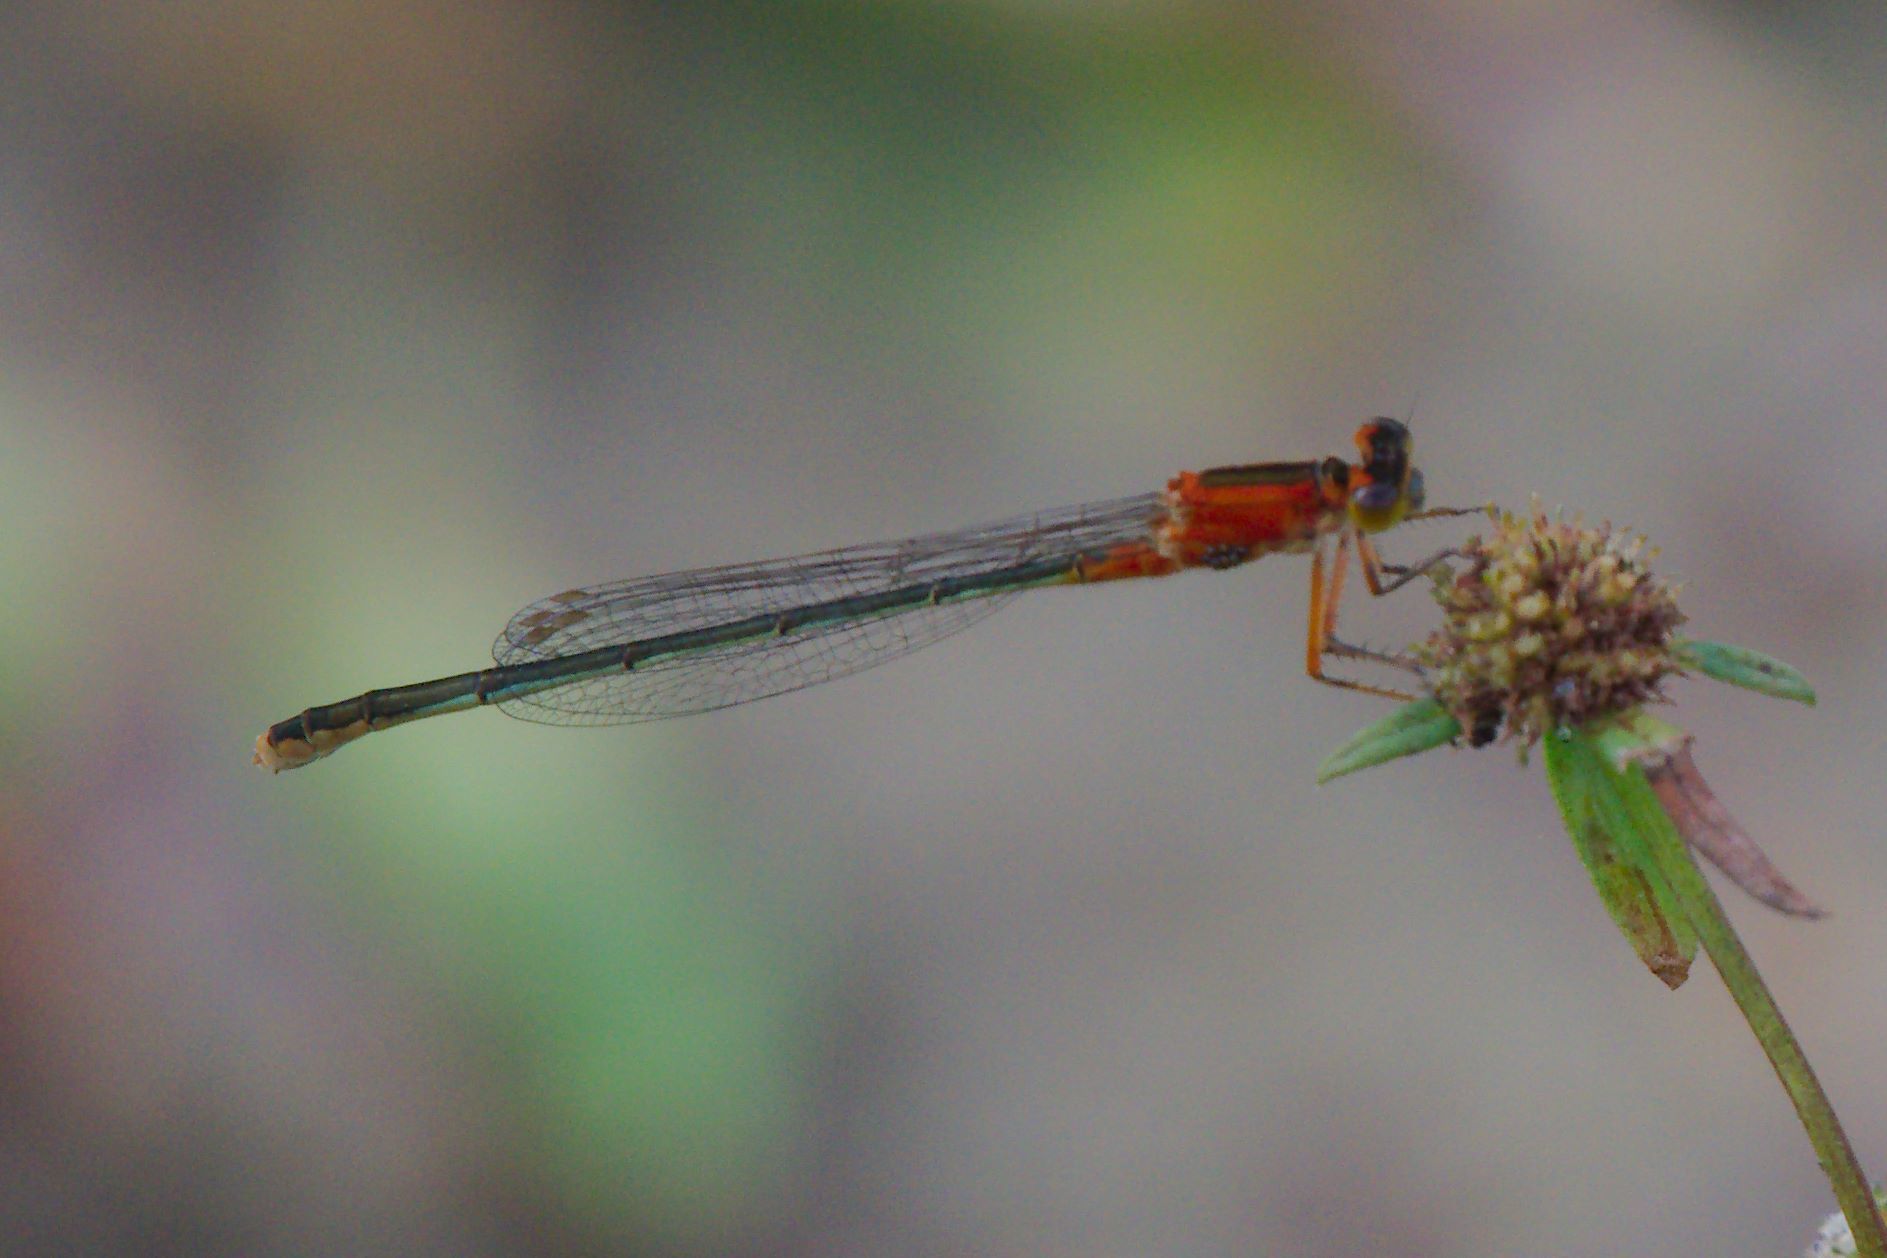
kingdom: Animalia
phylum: Arthropoda
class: Insecta
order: Odonata
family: Coenagrionidae
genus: Ischnura
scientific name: Ischnura ramburii
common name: Rambur's forktail
